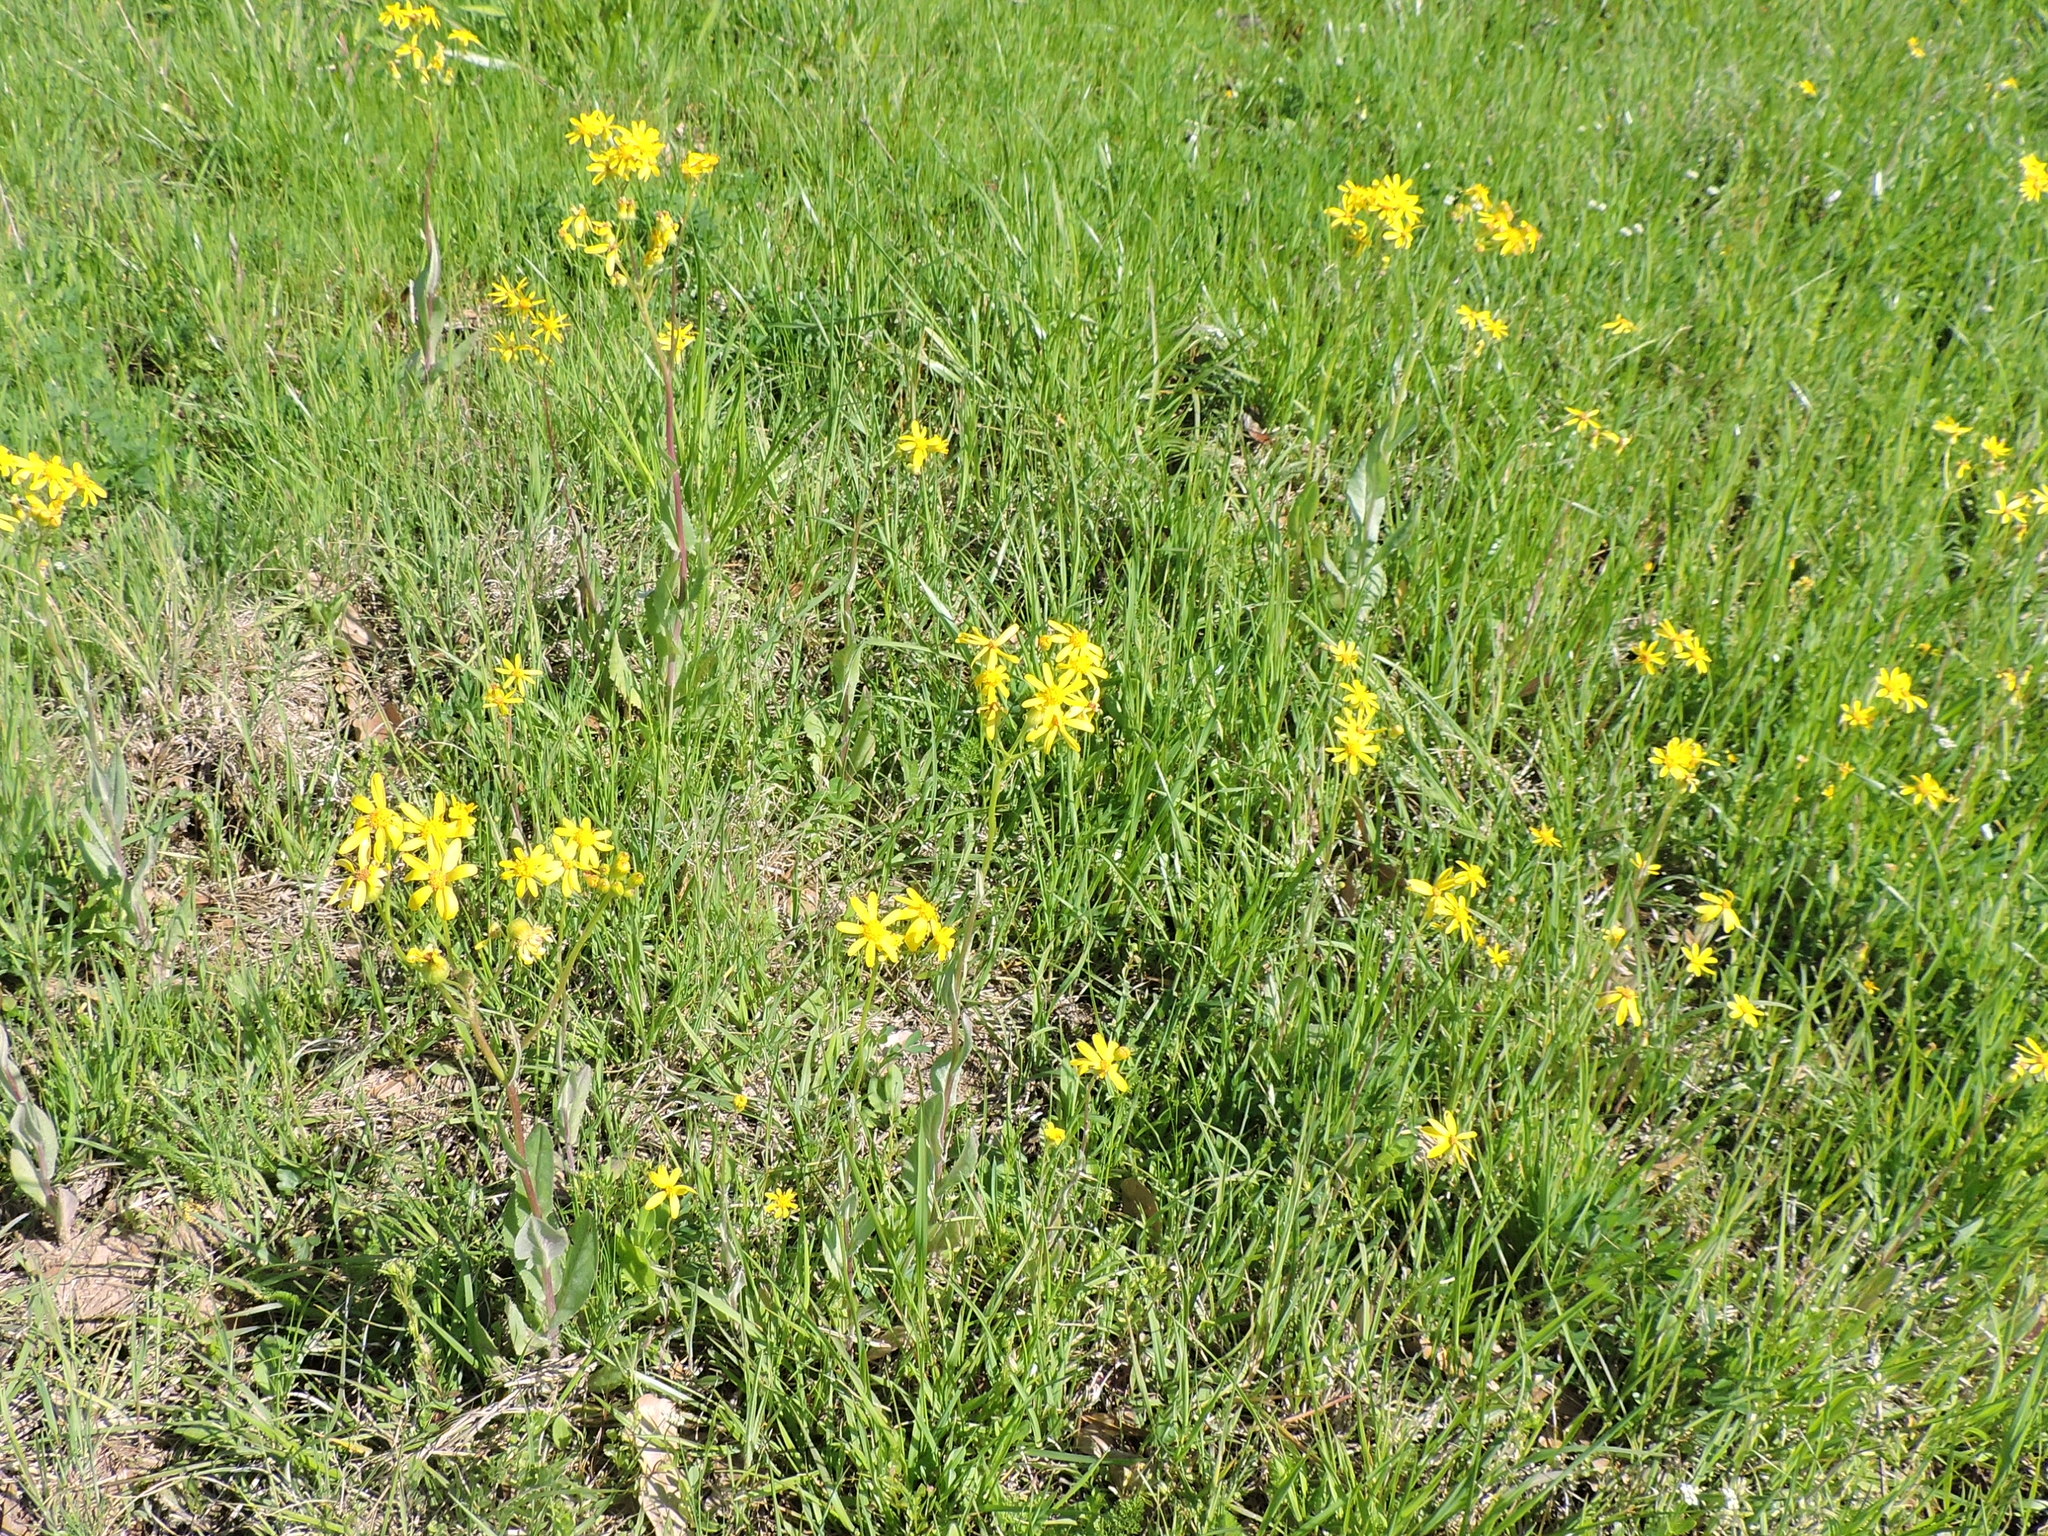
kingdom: Plantae
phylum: Tracheophyta
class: Magnoliopsida
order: Asterales
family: Asteraceae
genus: Senecio
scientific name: Senecio ampullaceus
